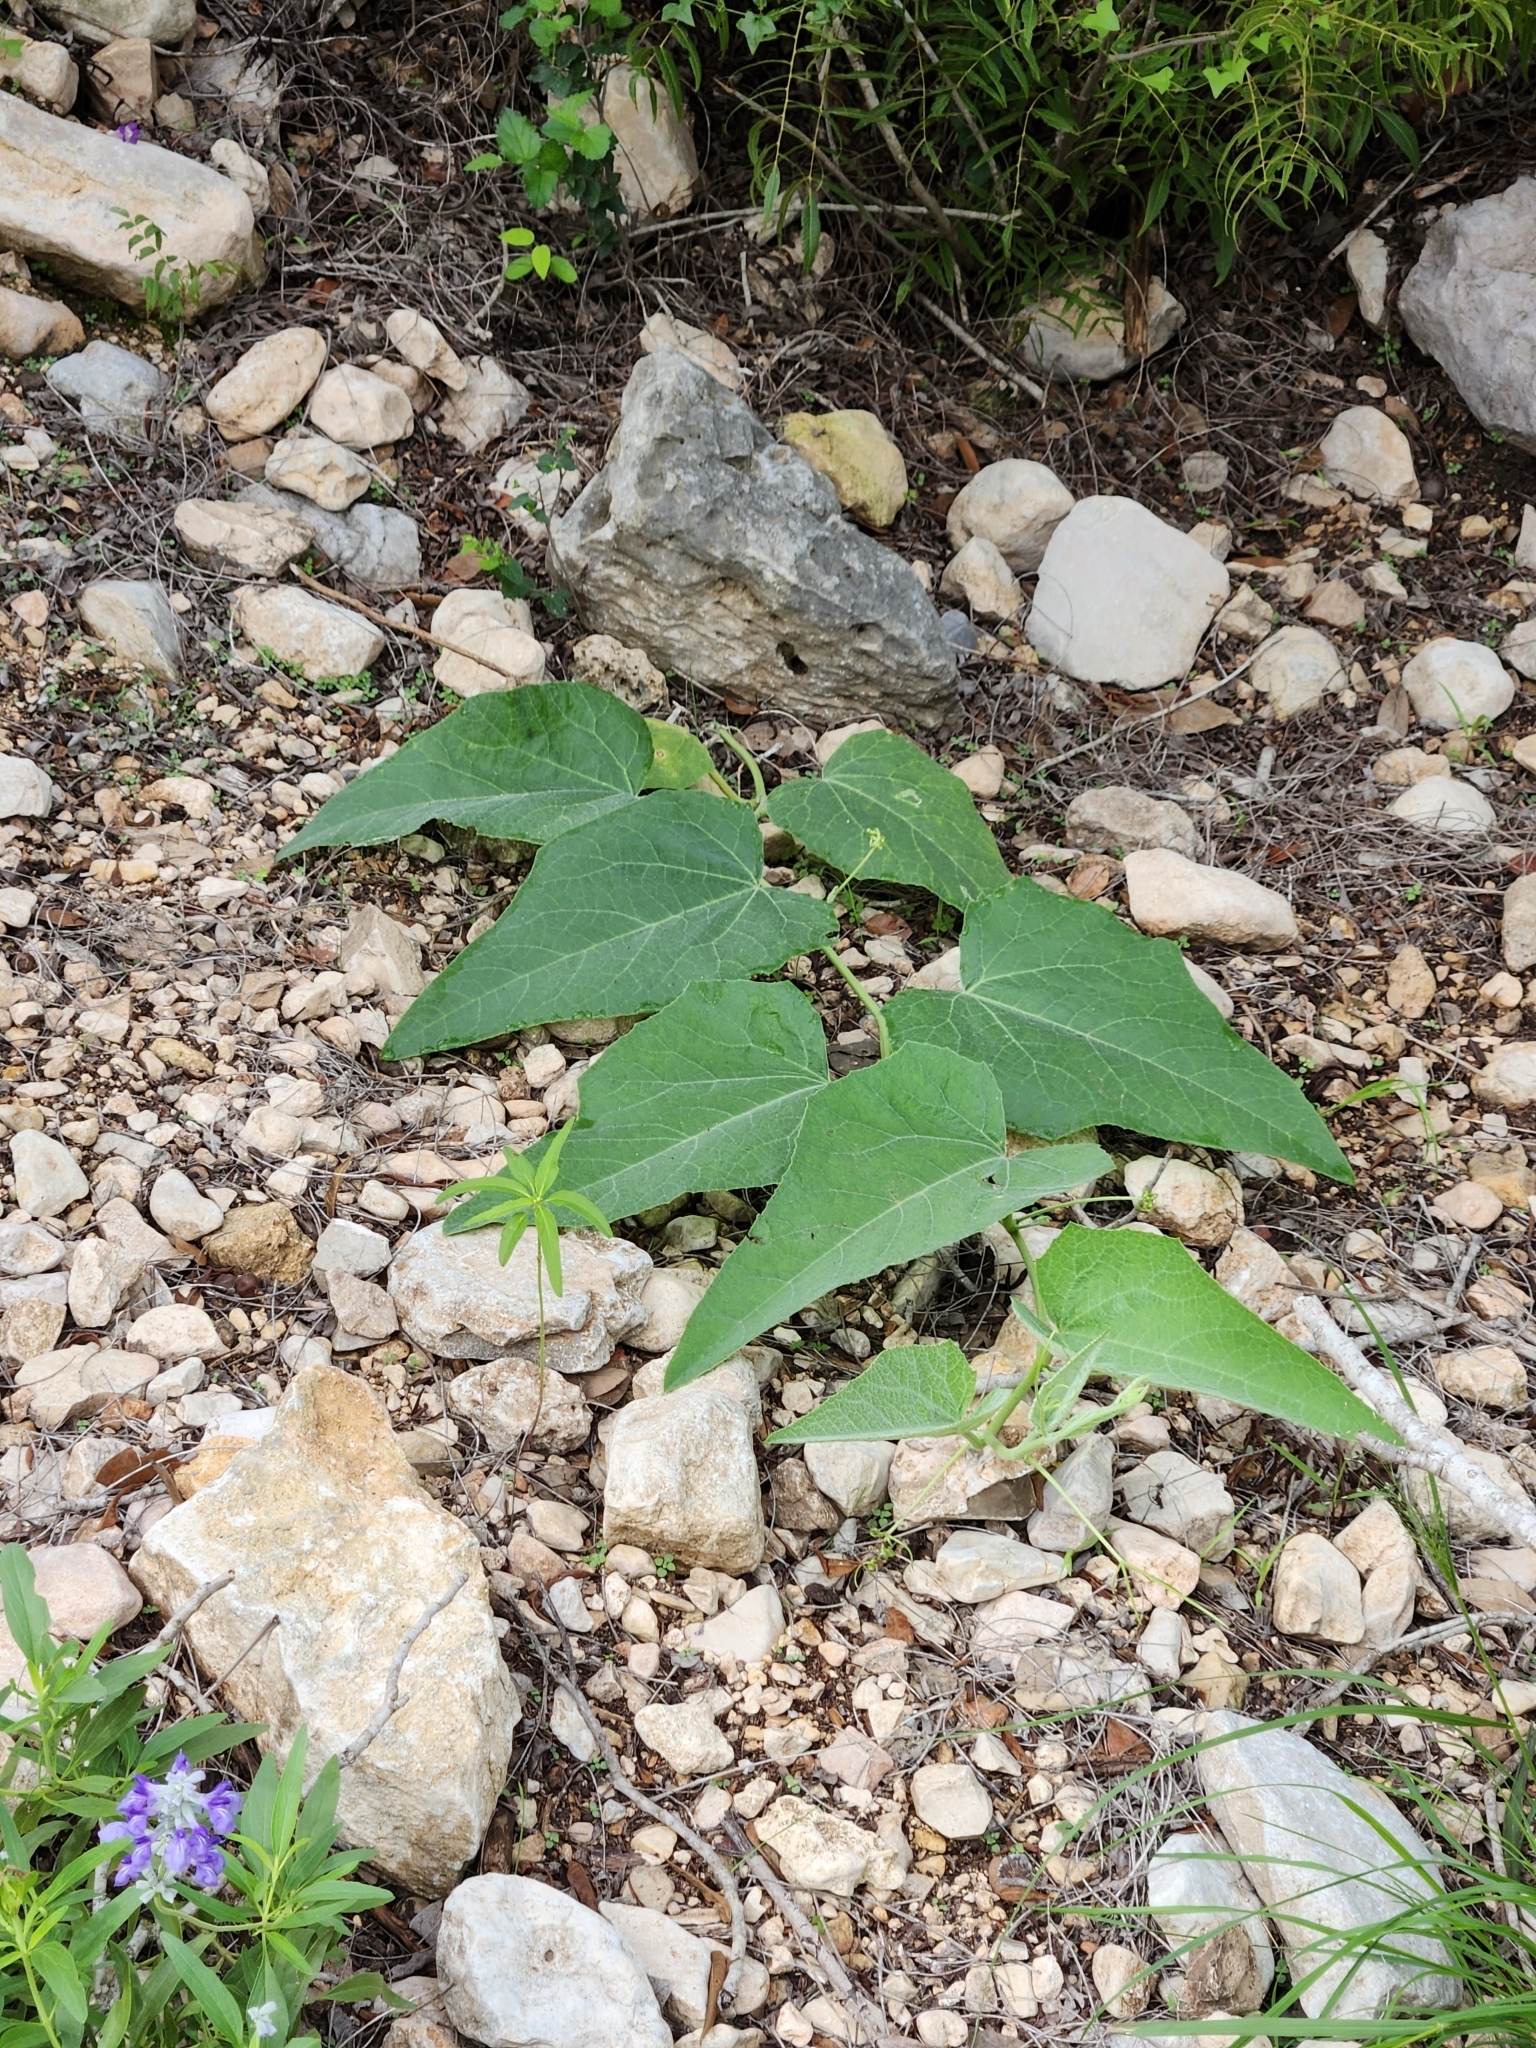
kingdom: Plantae
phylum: Tracheophyta
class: Magnoliopsida
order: Cucurbitales
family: Cucurbitaceae
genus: Cucurbita
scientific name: Cucurbita foetidissima
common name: Buffalo gourd
